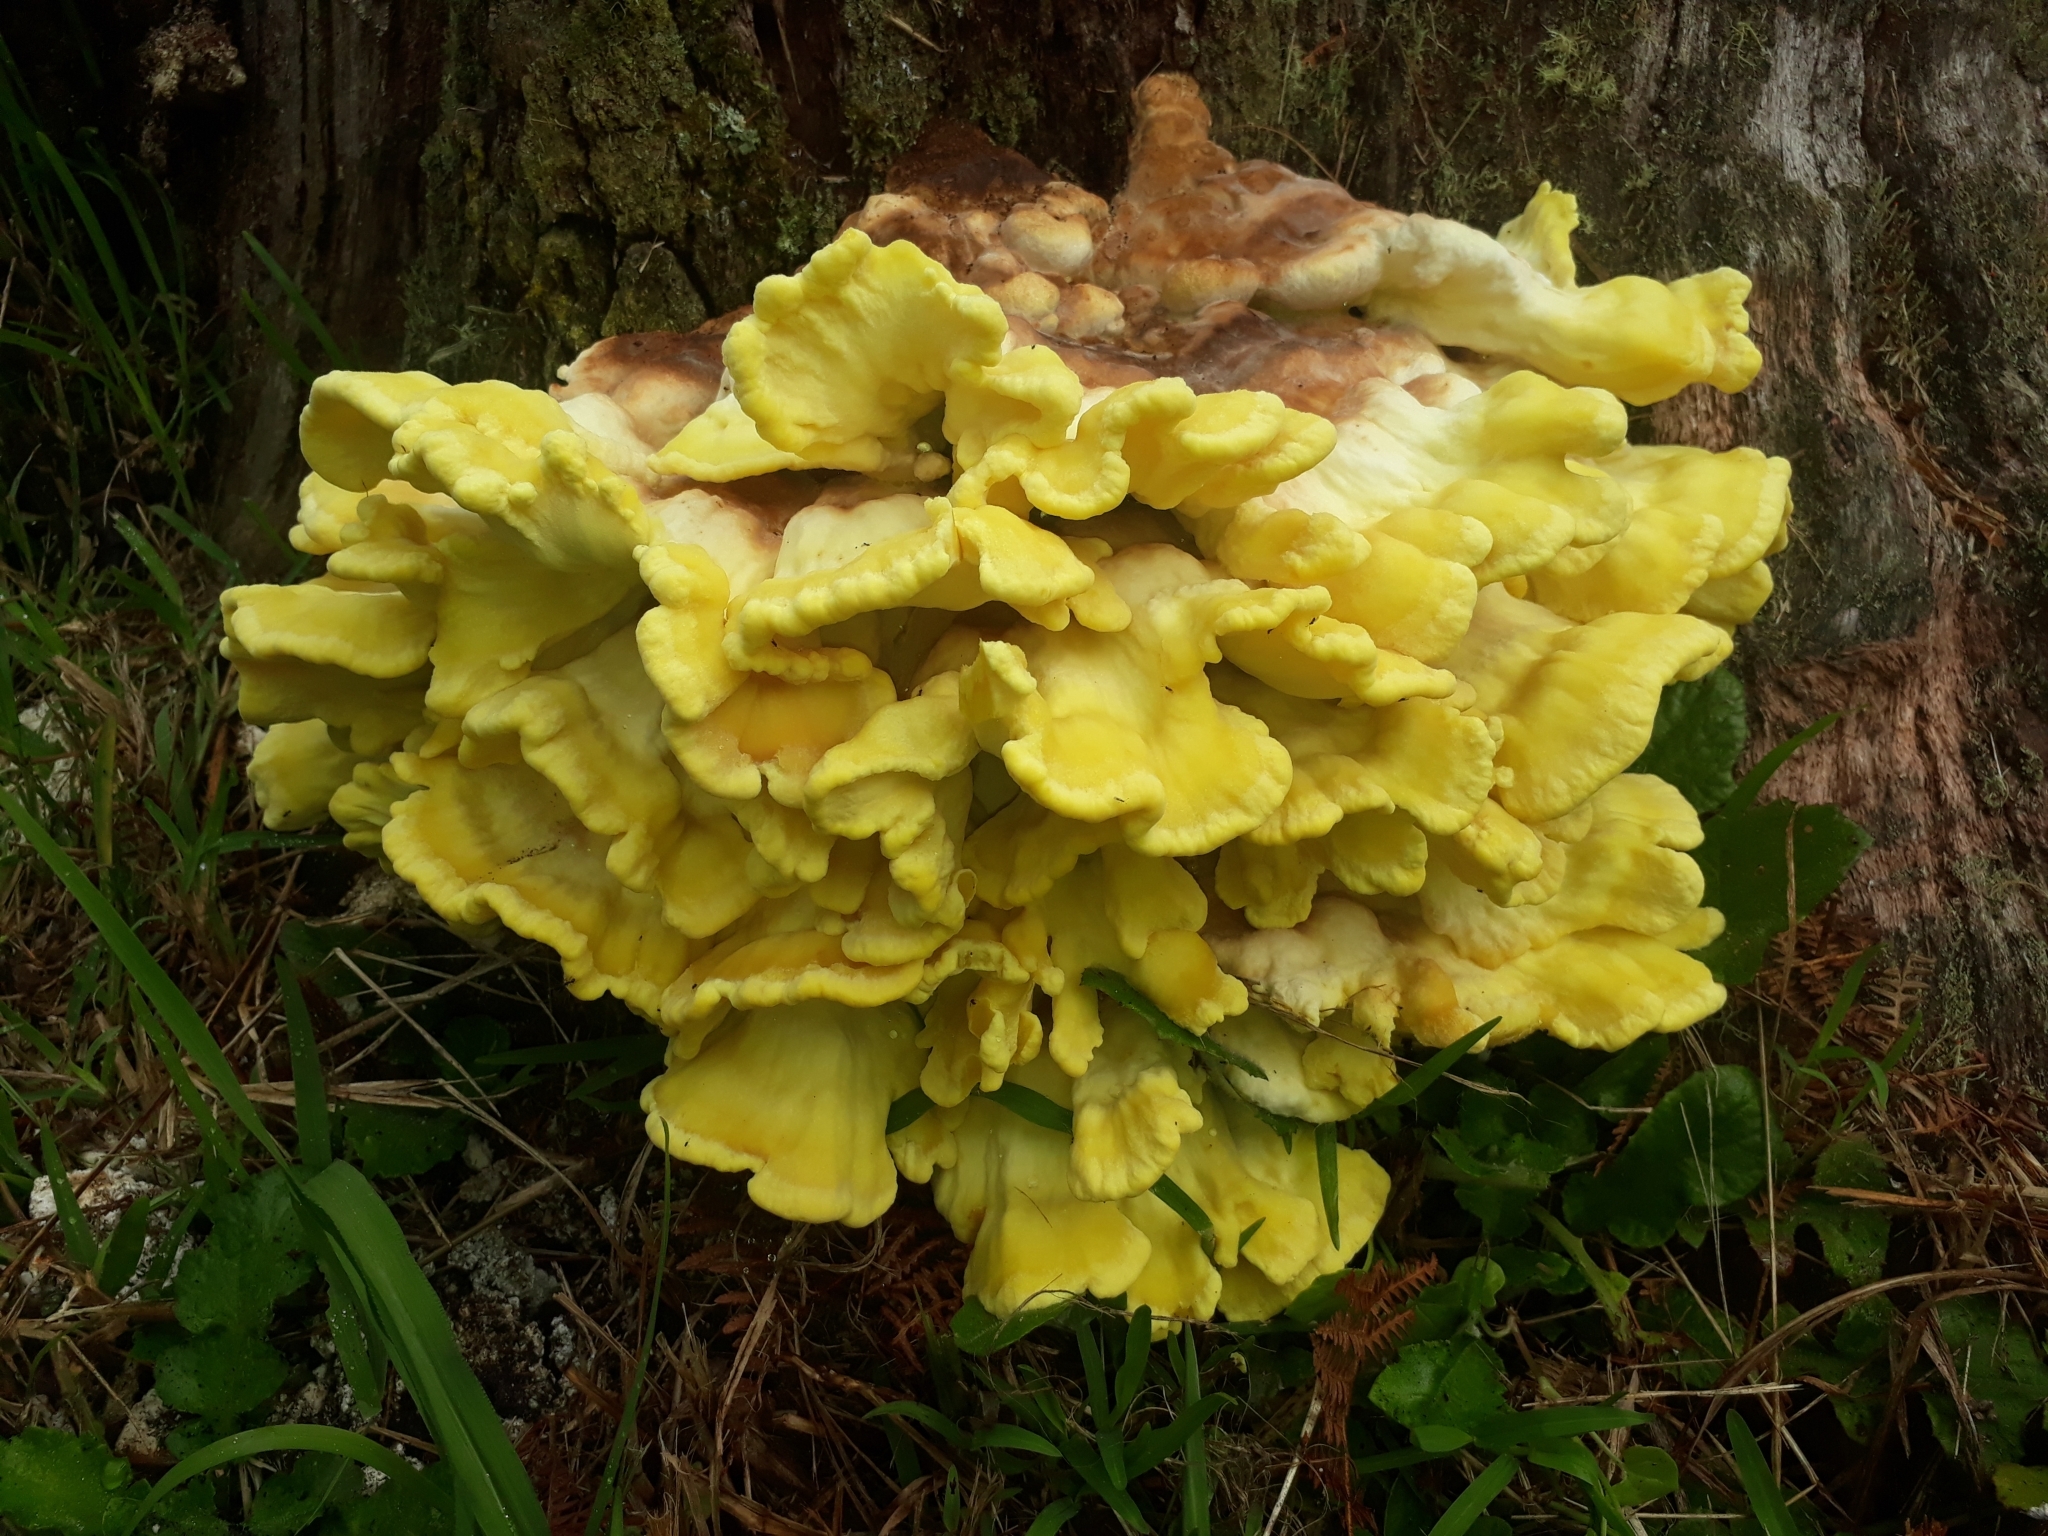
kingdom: Fungi
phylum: Basidiomycota
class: Agaricomycetes
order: Polyporales
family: Laetiporaceae
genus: Laetiporus
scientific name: Laetiporus sulphureus
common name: Chicken of the woods
